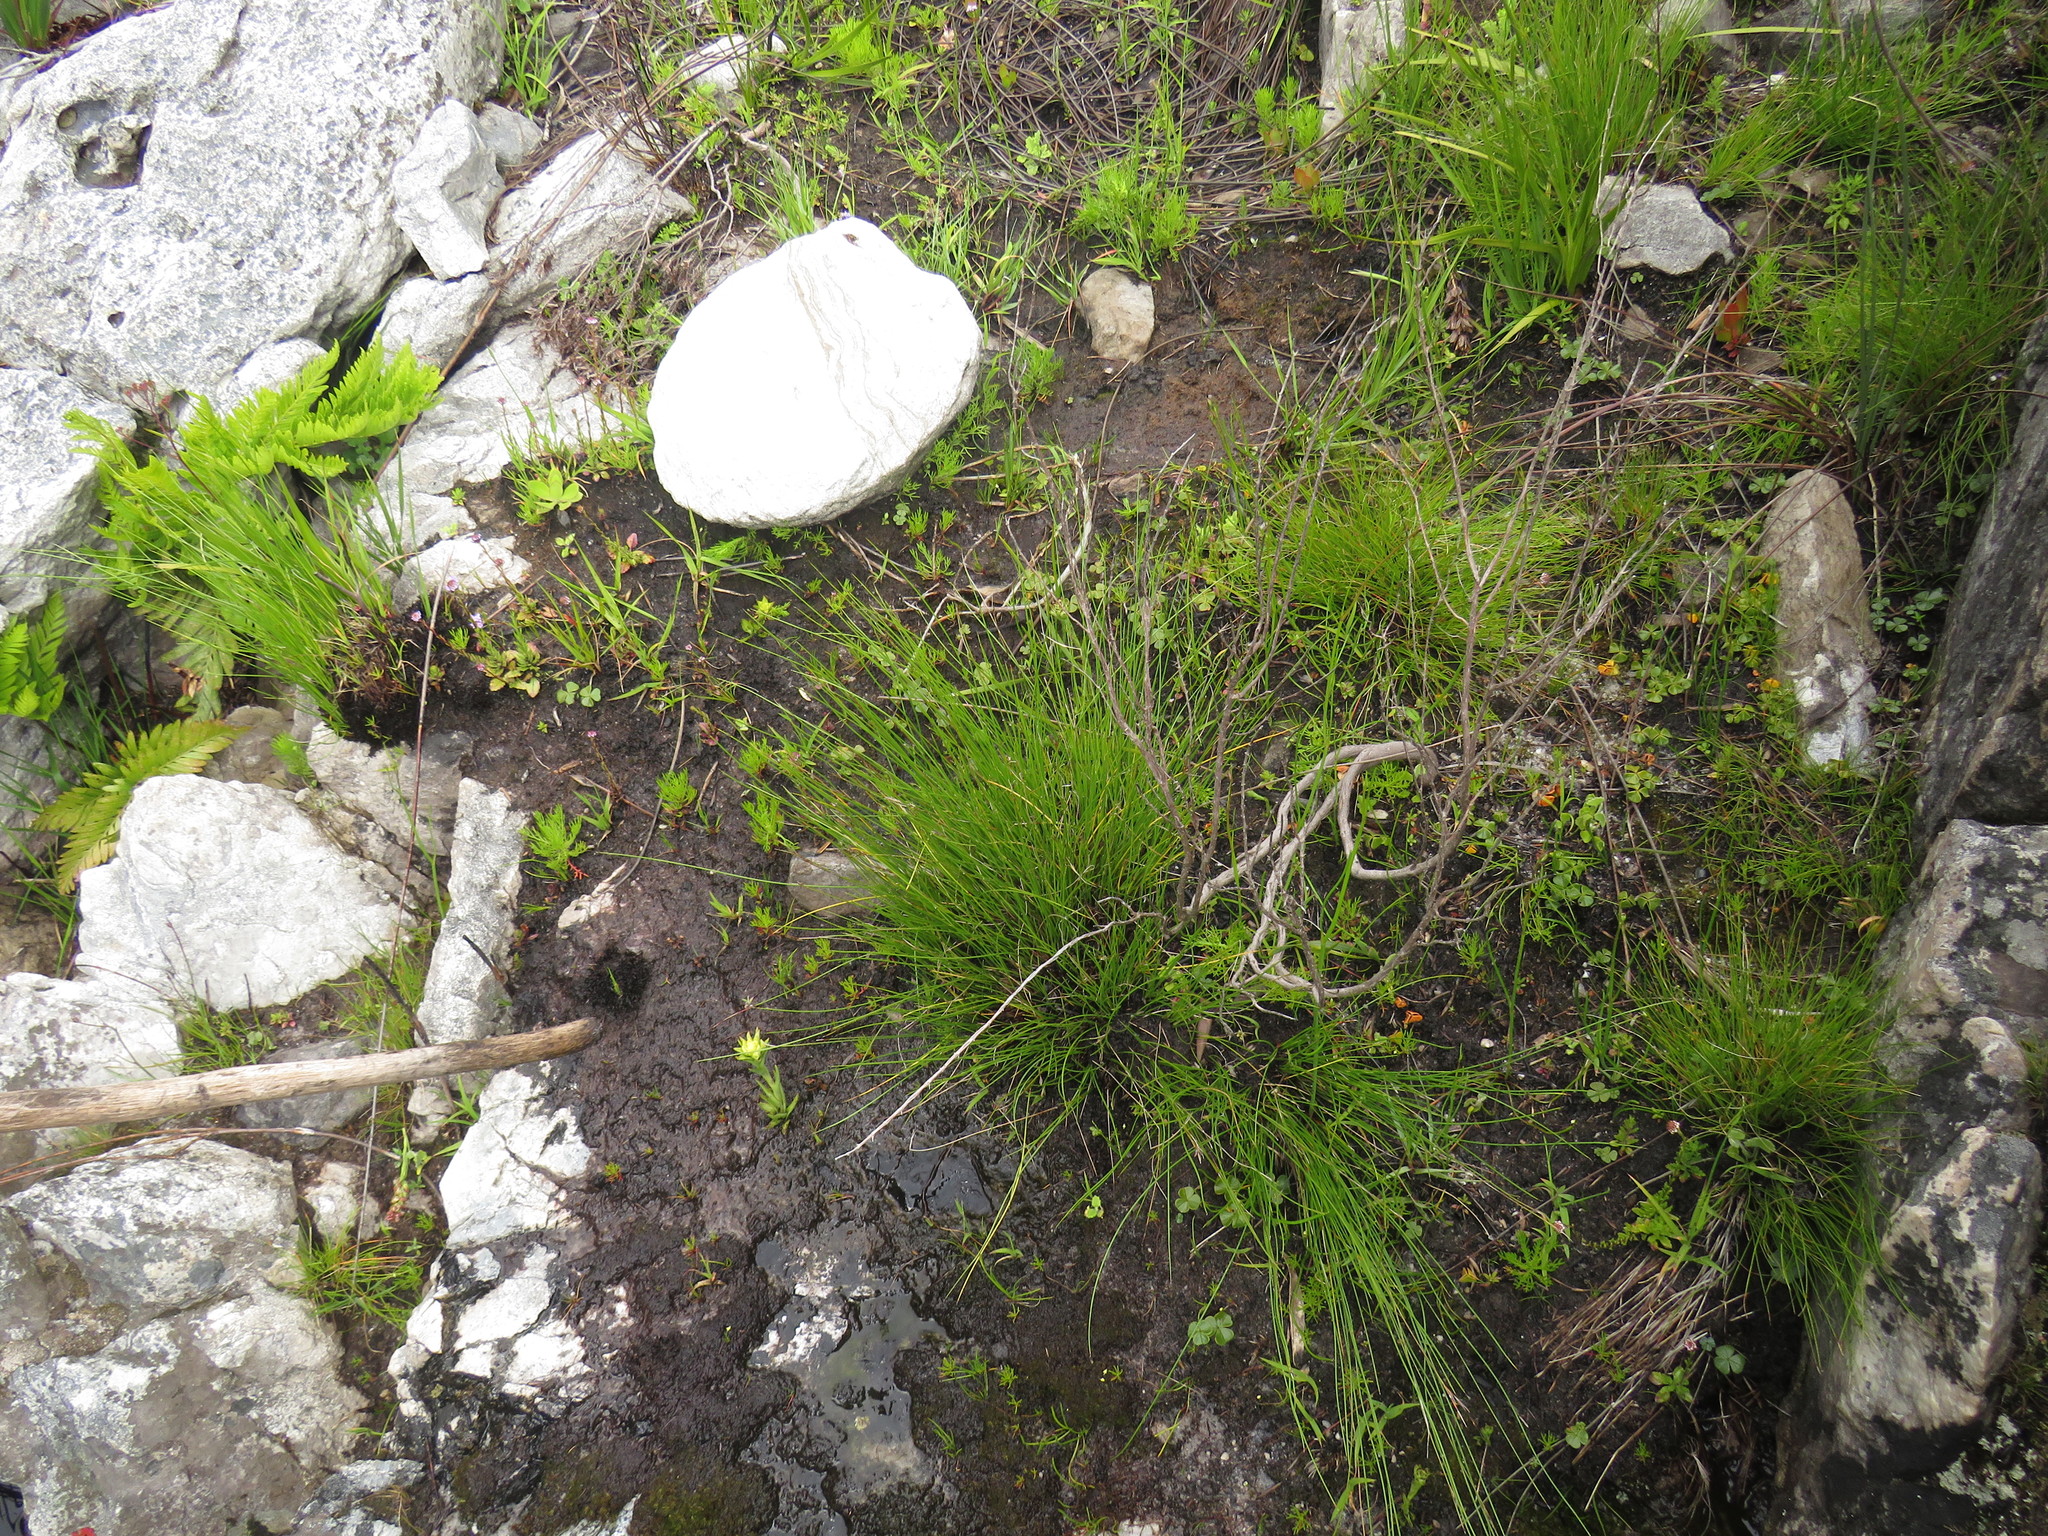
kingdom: Plantae
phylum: Tracheophyta
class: Liliopsida
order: Asparagales
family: Orchidaceae
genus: Disa
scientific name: Disa bivalvata
